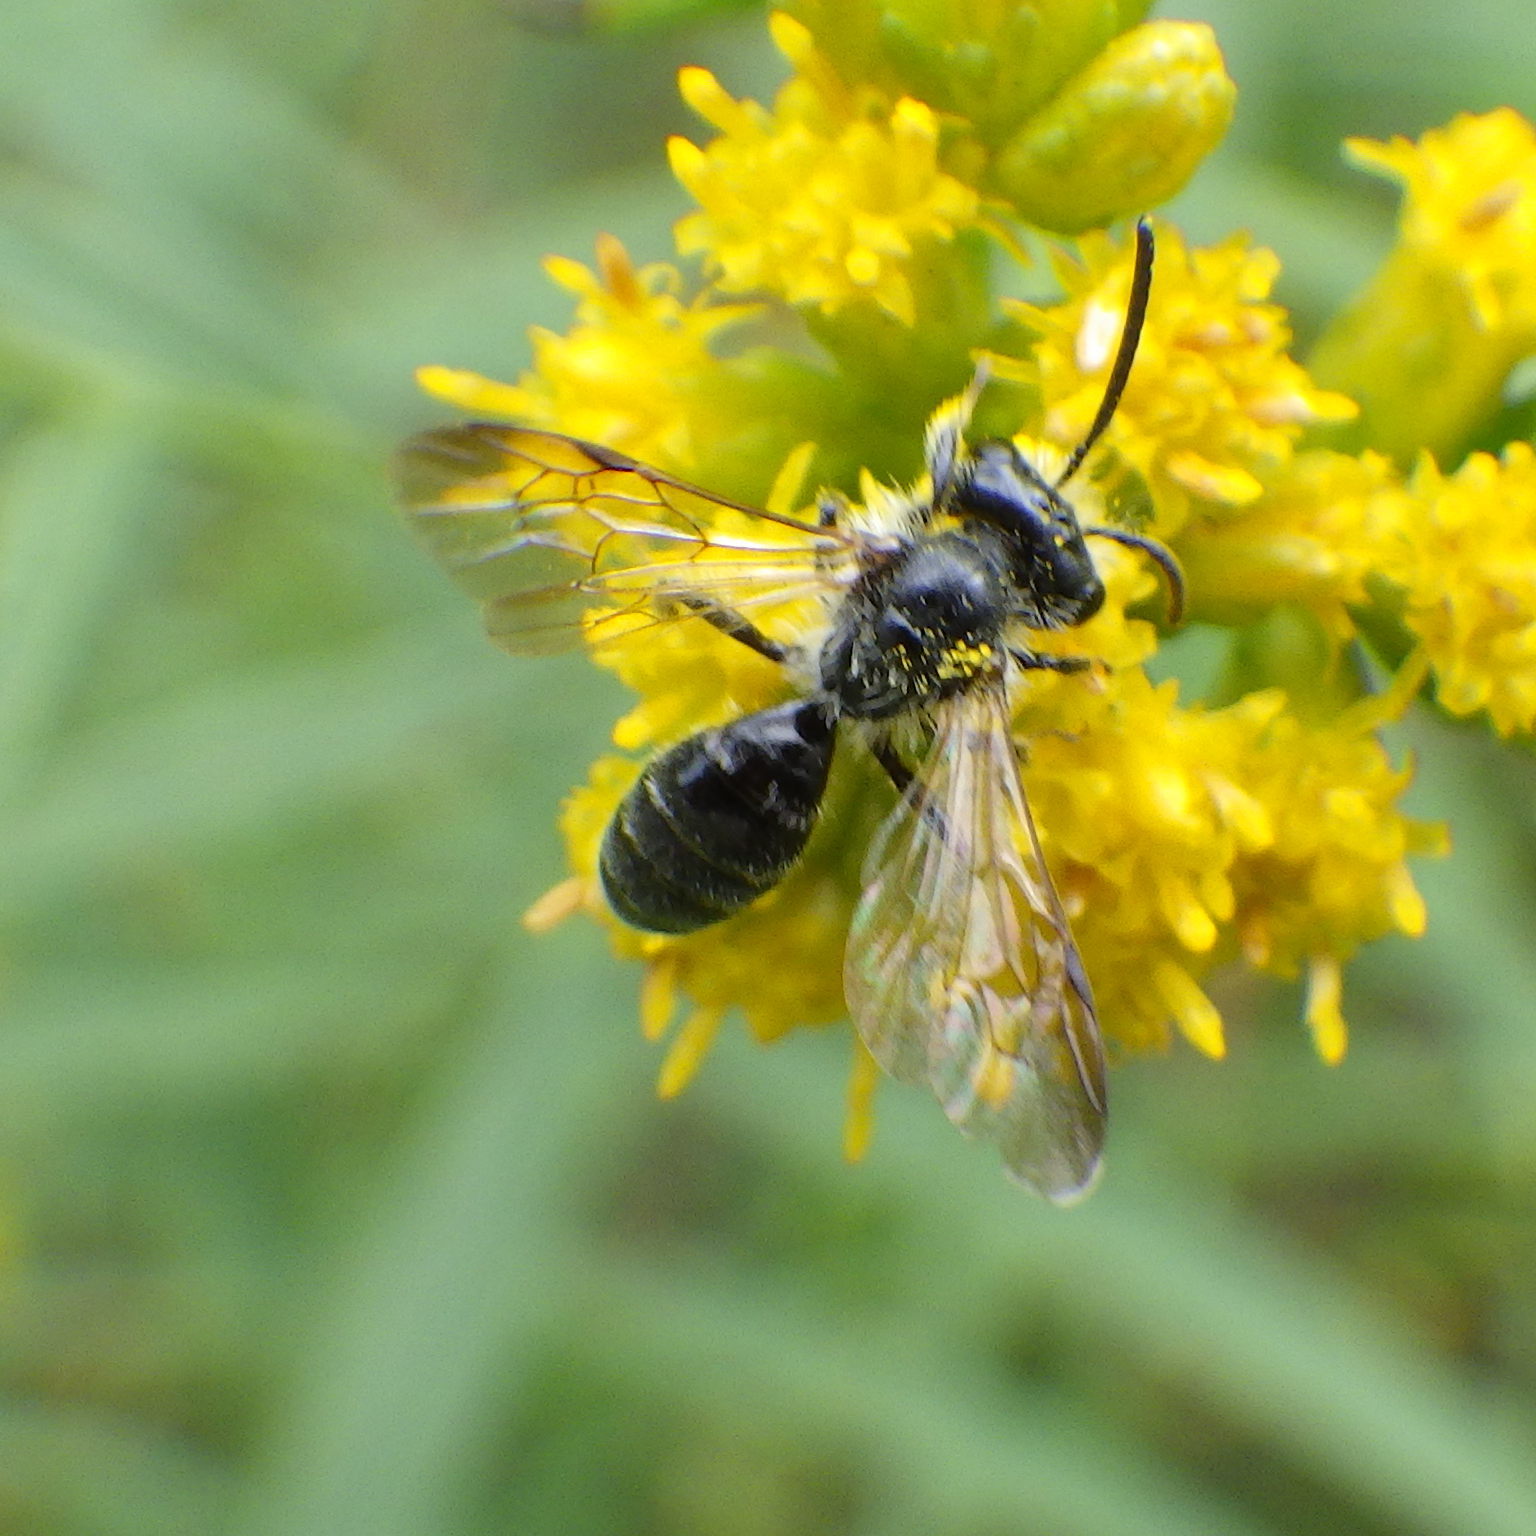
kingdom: Animalia
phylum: Arthropoda
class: Insecta
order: Hymenoptera
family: Andrenidae
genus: Andrena
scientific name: Andrena nubecula
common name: Cloudy-winged mining bee
